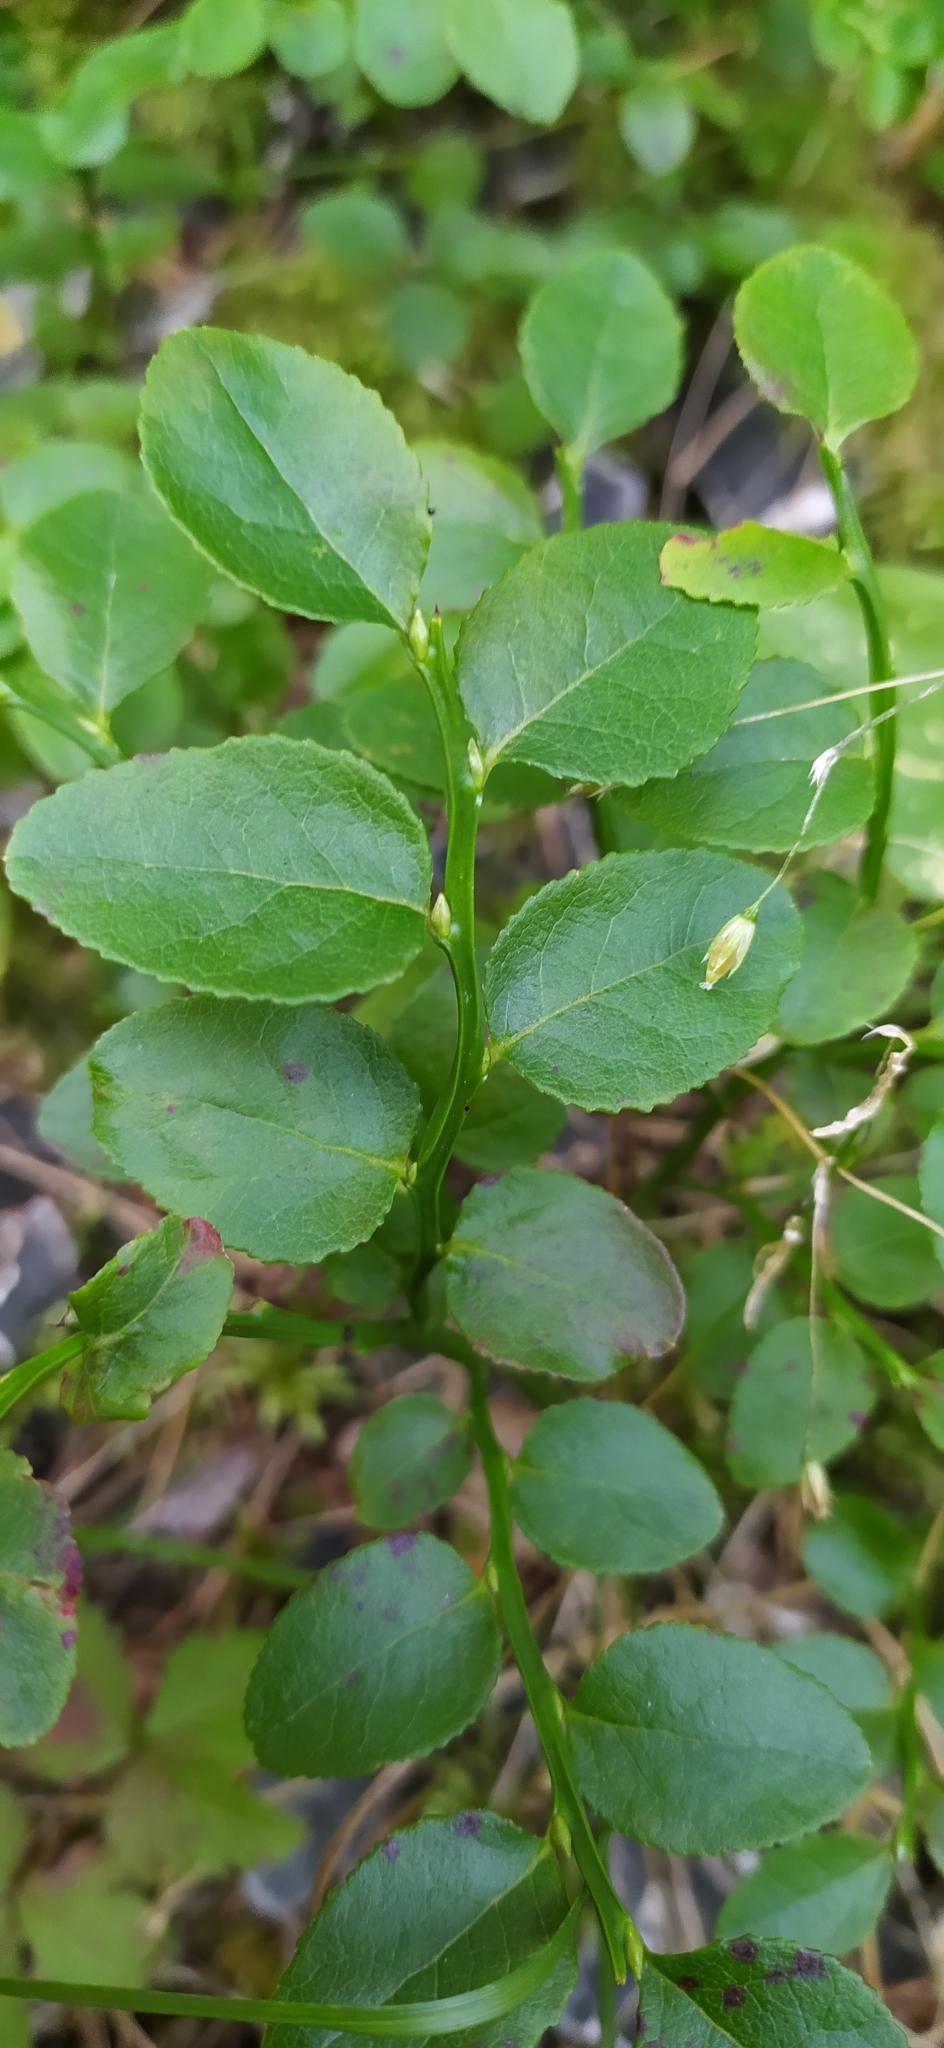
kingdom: Plantae
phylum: Tracheophyta
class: Magnoliopsida
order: Ericales
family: Ericaceae
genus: Vaccinium
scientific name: Vaccinium myrtillus
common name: Bilberry
